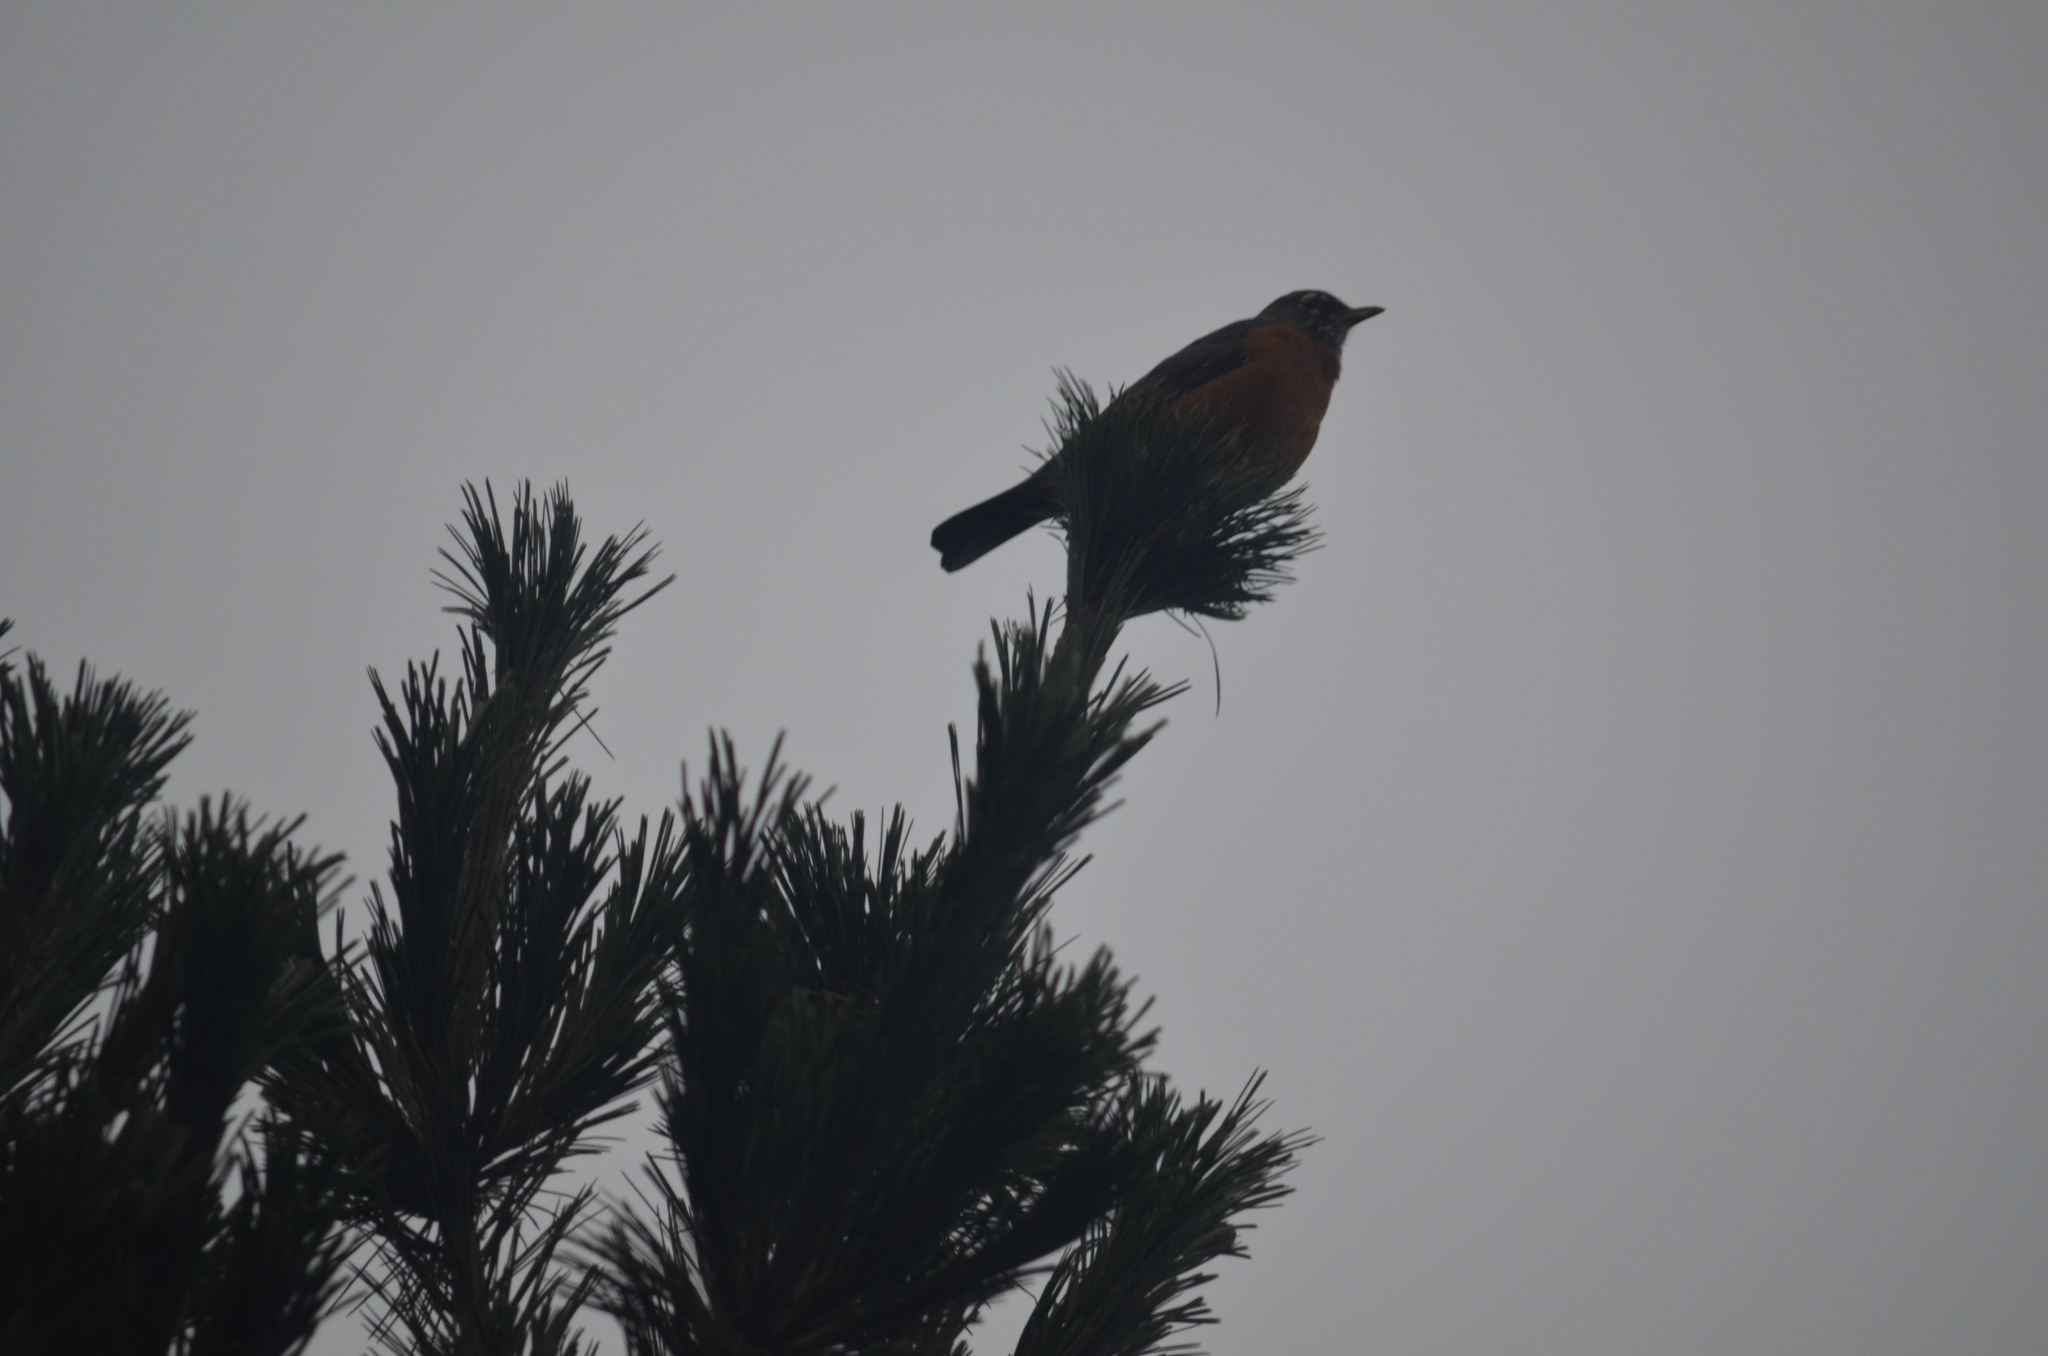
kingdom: Animalia
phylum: Chordata
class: Aves
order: Passeriformes
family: Turdidae
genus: Turdus
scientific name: Turdus migratorius
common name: American robin
